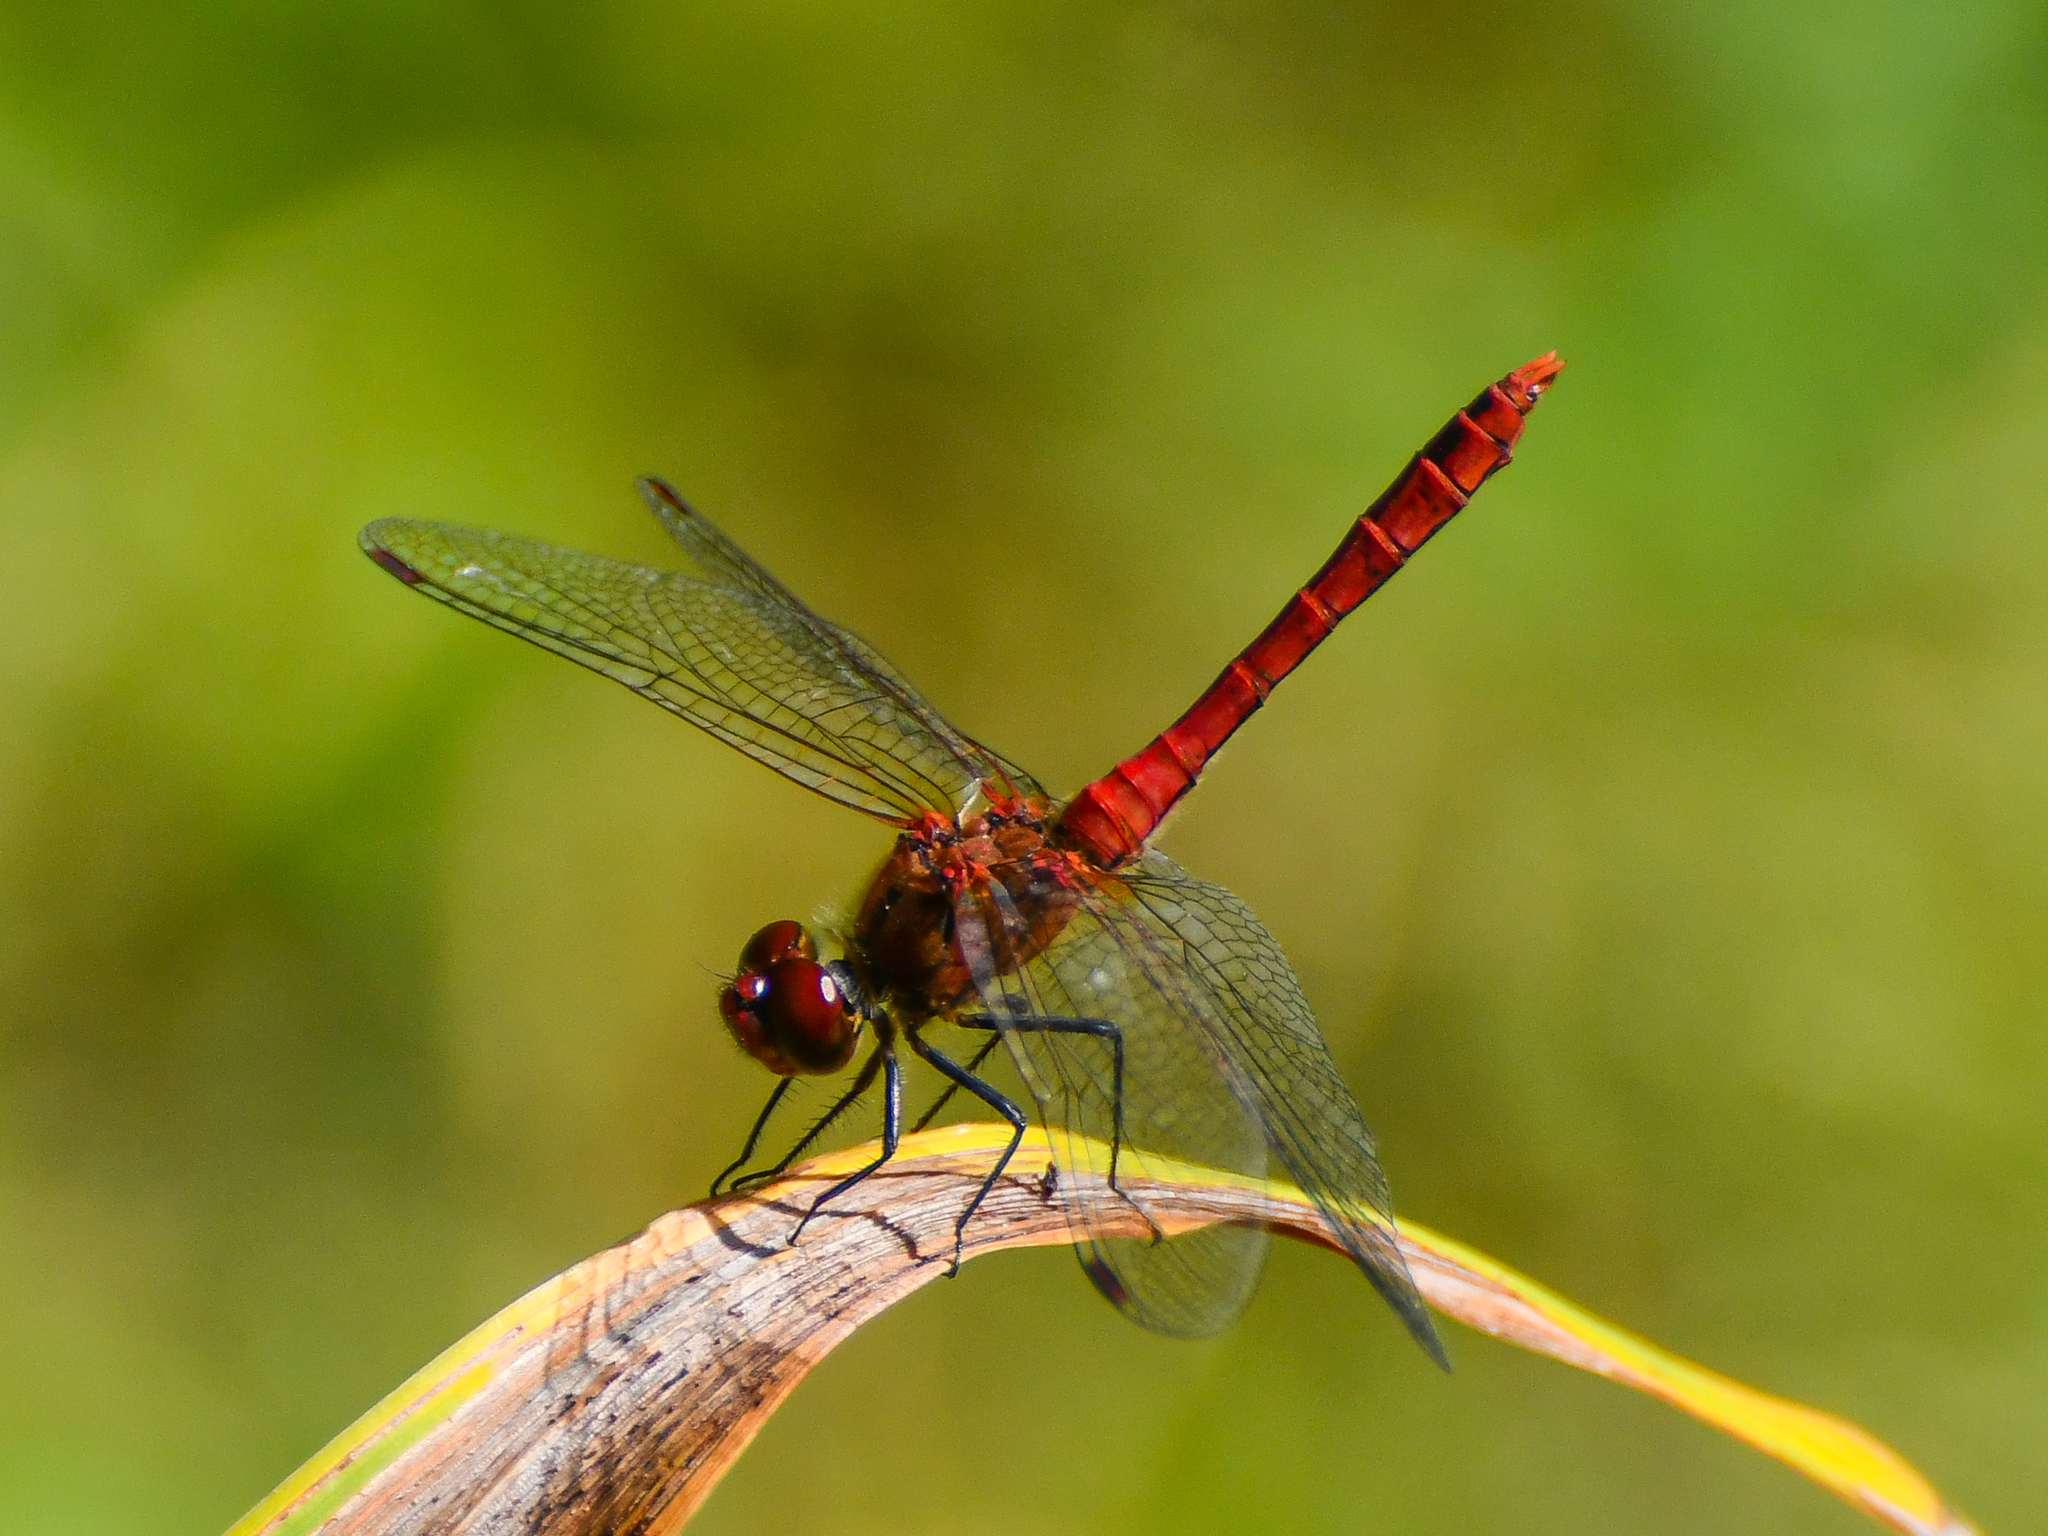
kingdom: Animalia
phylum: Arthropoda
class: Insecta
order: Odonata
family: Libellulidae
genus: Sympetrum
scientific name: Sympetrum sanguineum
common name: Ruddy darter
